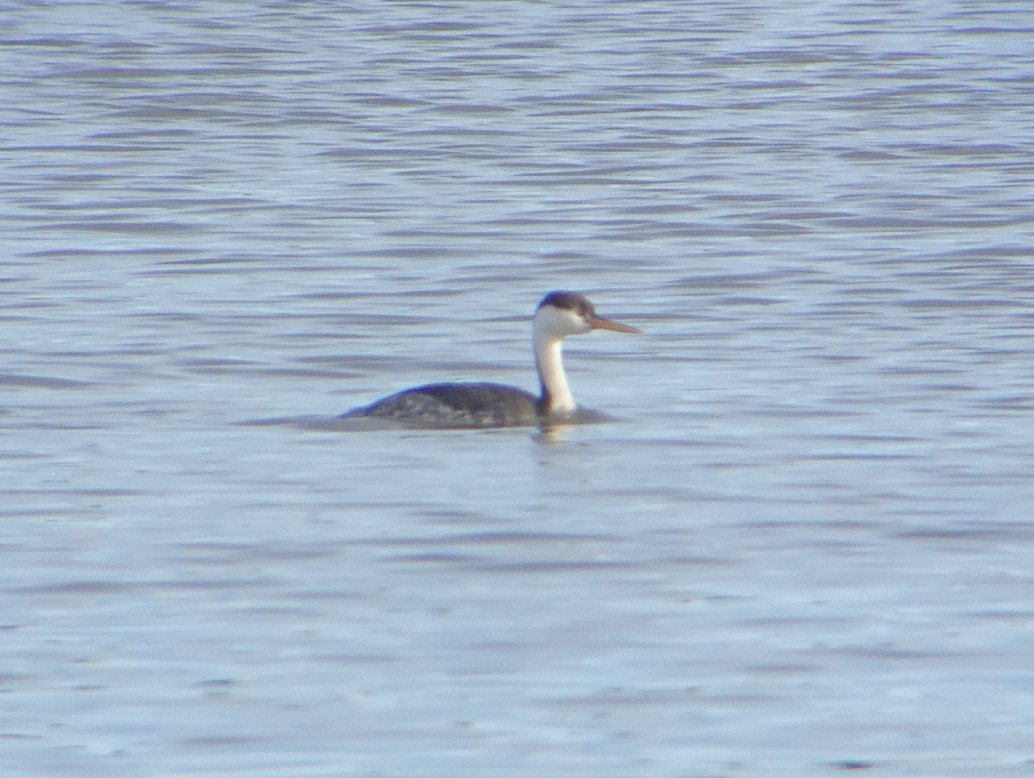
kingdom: Animalia
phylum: Chordata
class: Aves
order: Podicipediformes
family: Podicipedidae
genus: Aechmophorus
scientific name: Aechmophorus clarkii
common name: Clark's grebe
